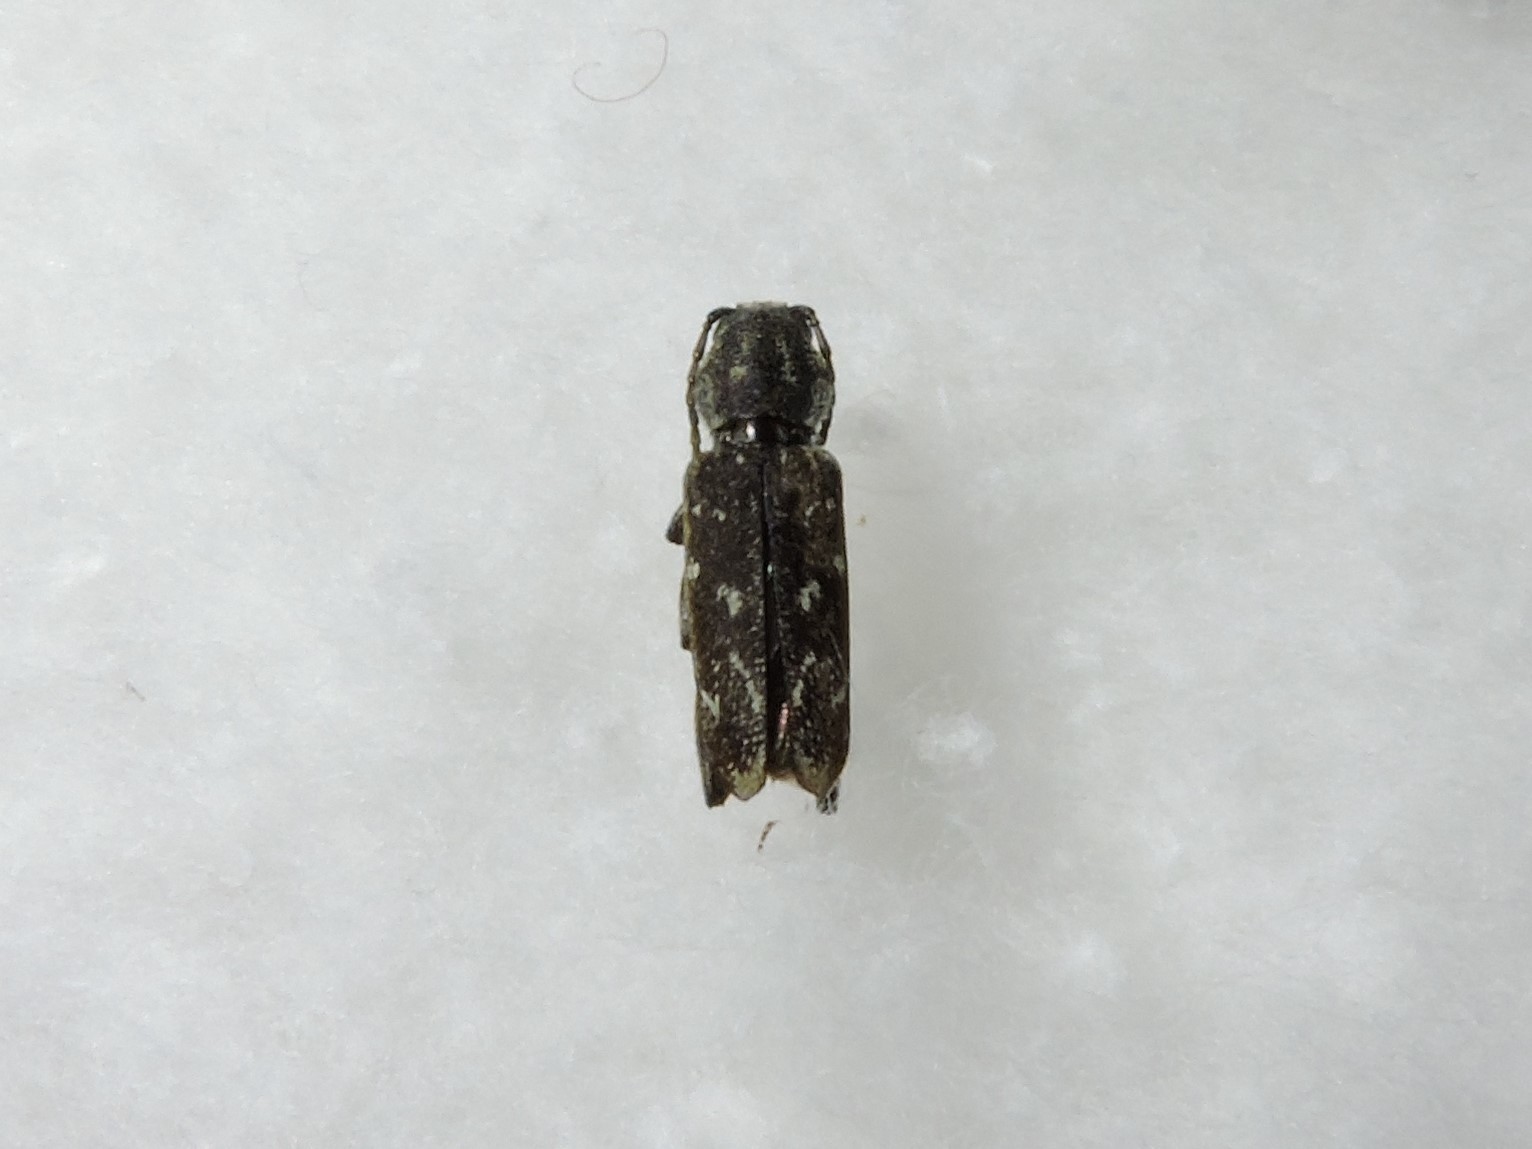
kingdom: Animalia
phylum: Arthropoda
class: Insecta
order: Coleoptera
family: Cerambycidae
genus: Xylotrechus
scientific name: Xylotrechus rusticus
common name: Grey tiger long-horned beetle
